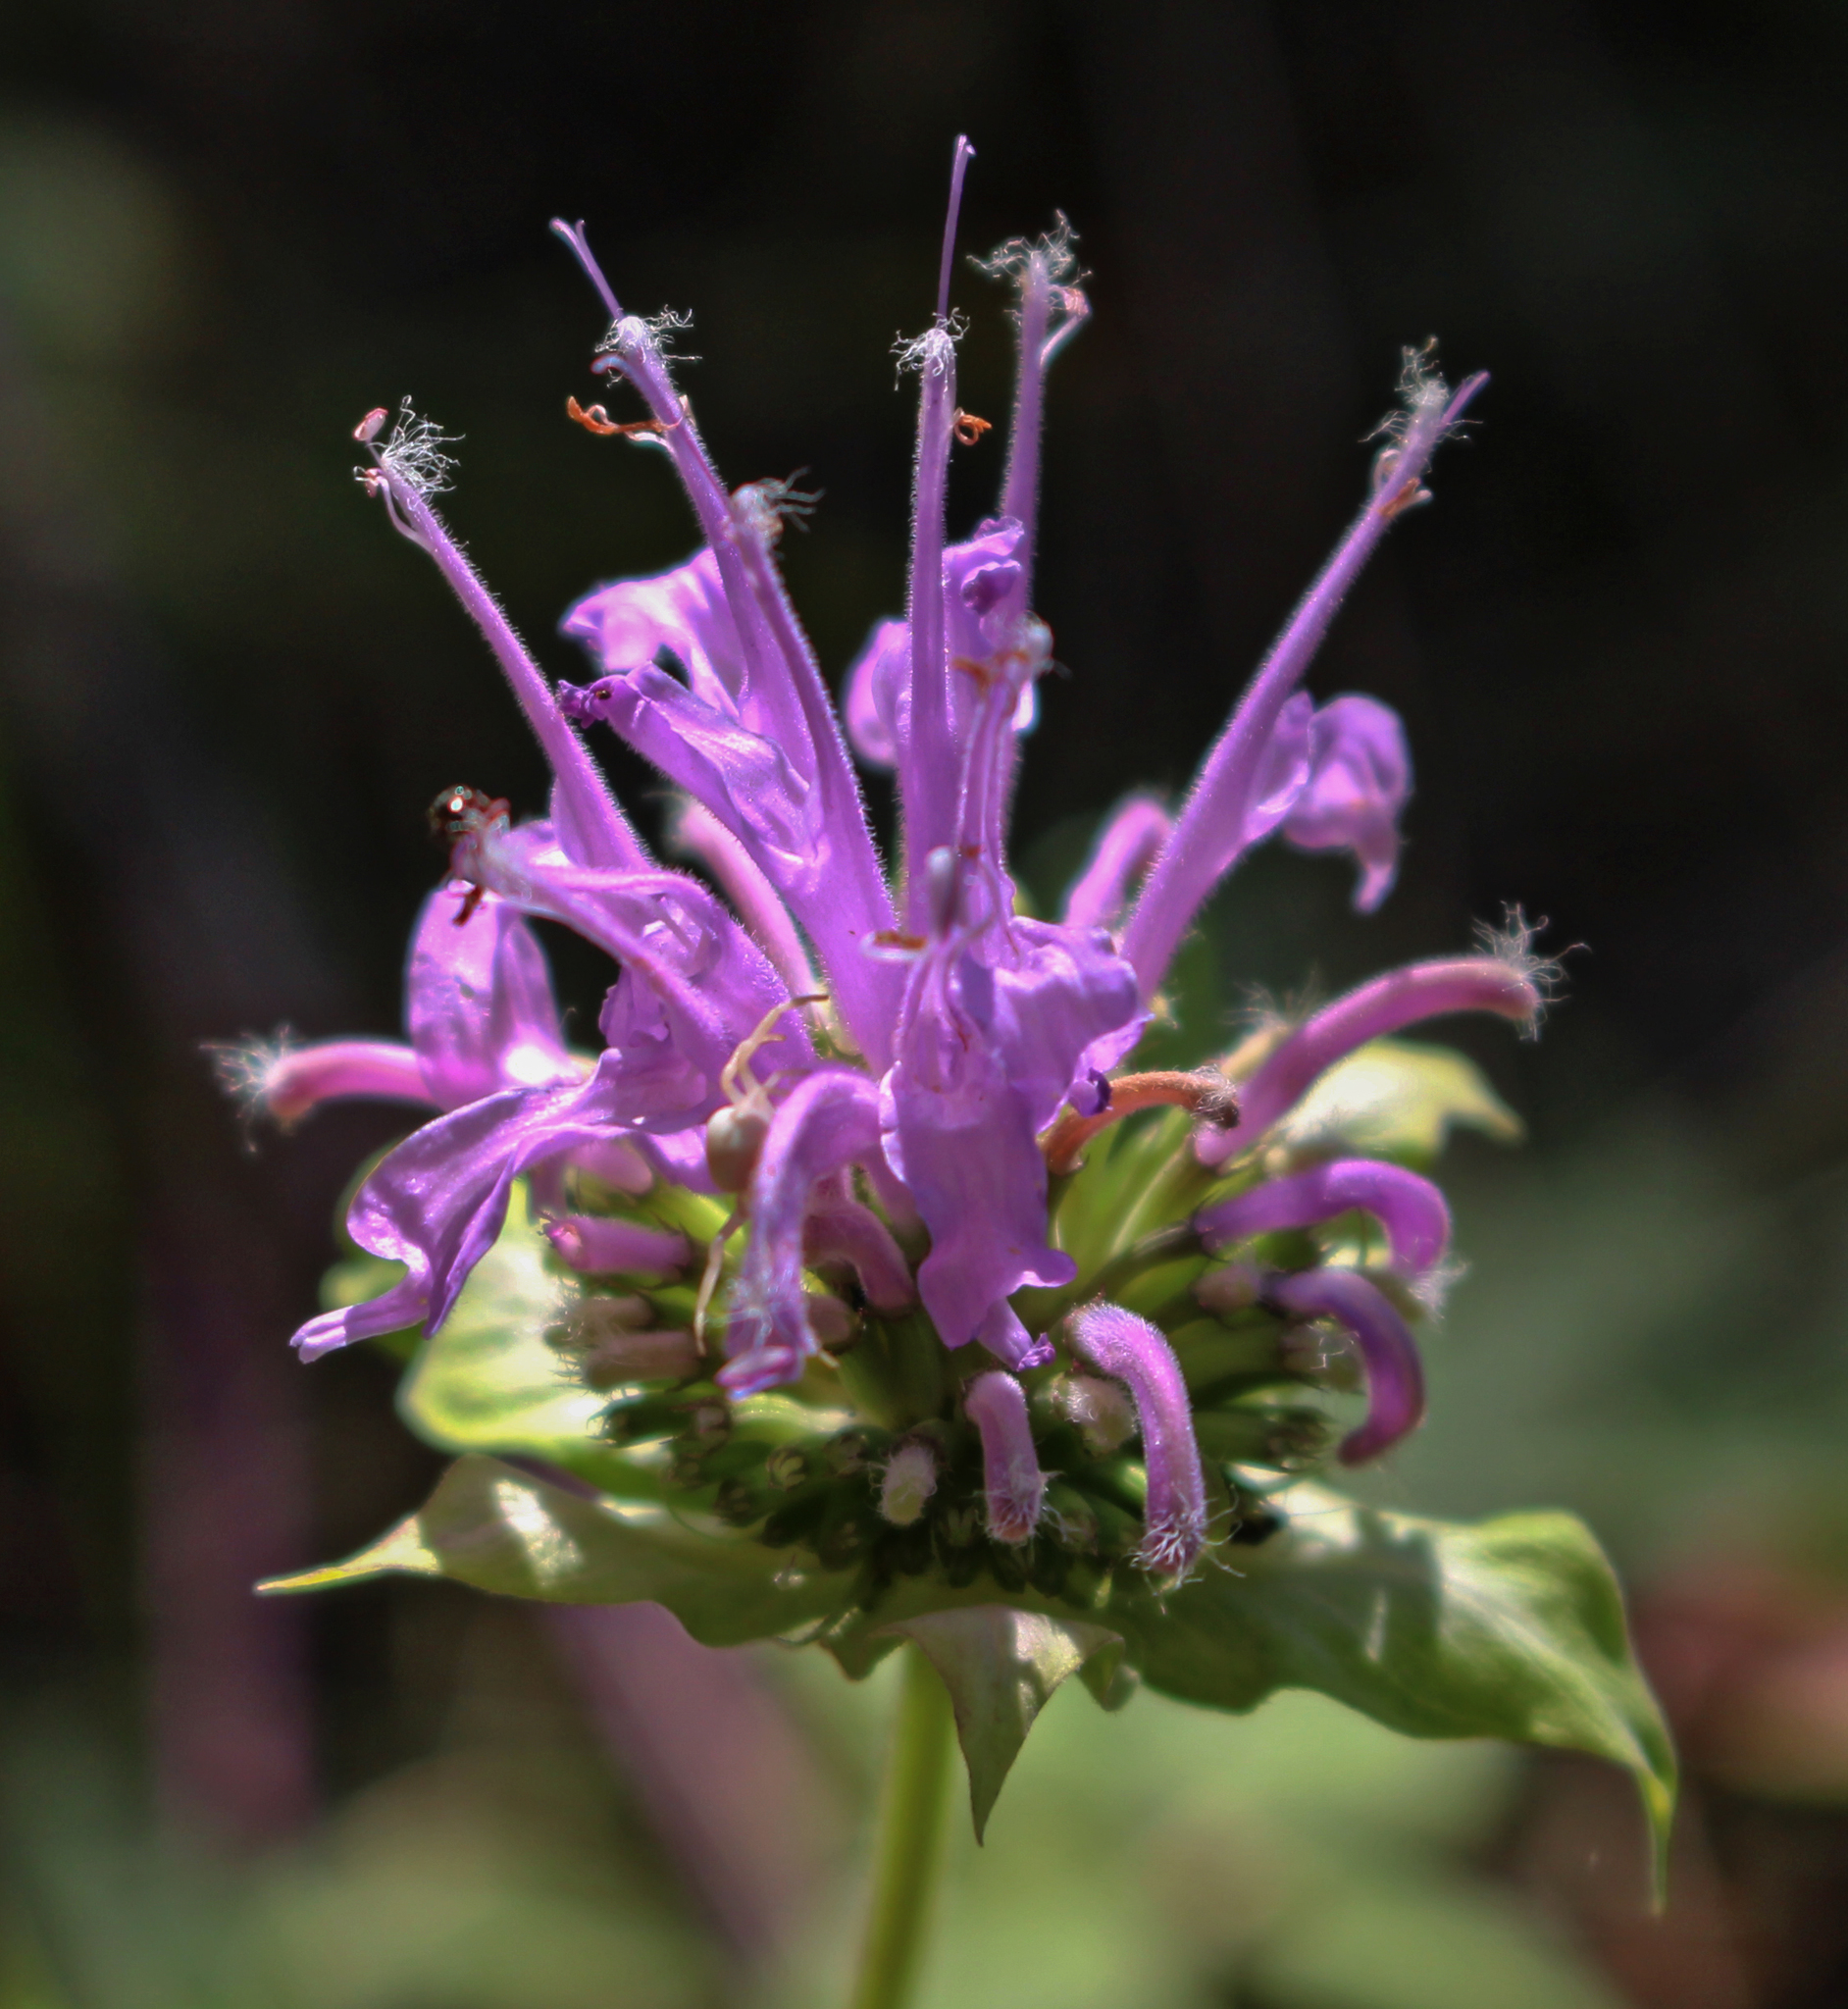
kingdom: Plantae
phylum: Tracheophyta
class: Magnoliopsida
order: Lamiales
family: Lamiaceae
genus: Monarda
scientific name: Monarda fistulosa
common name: Purple beebalm
